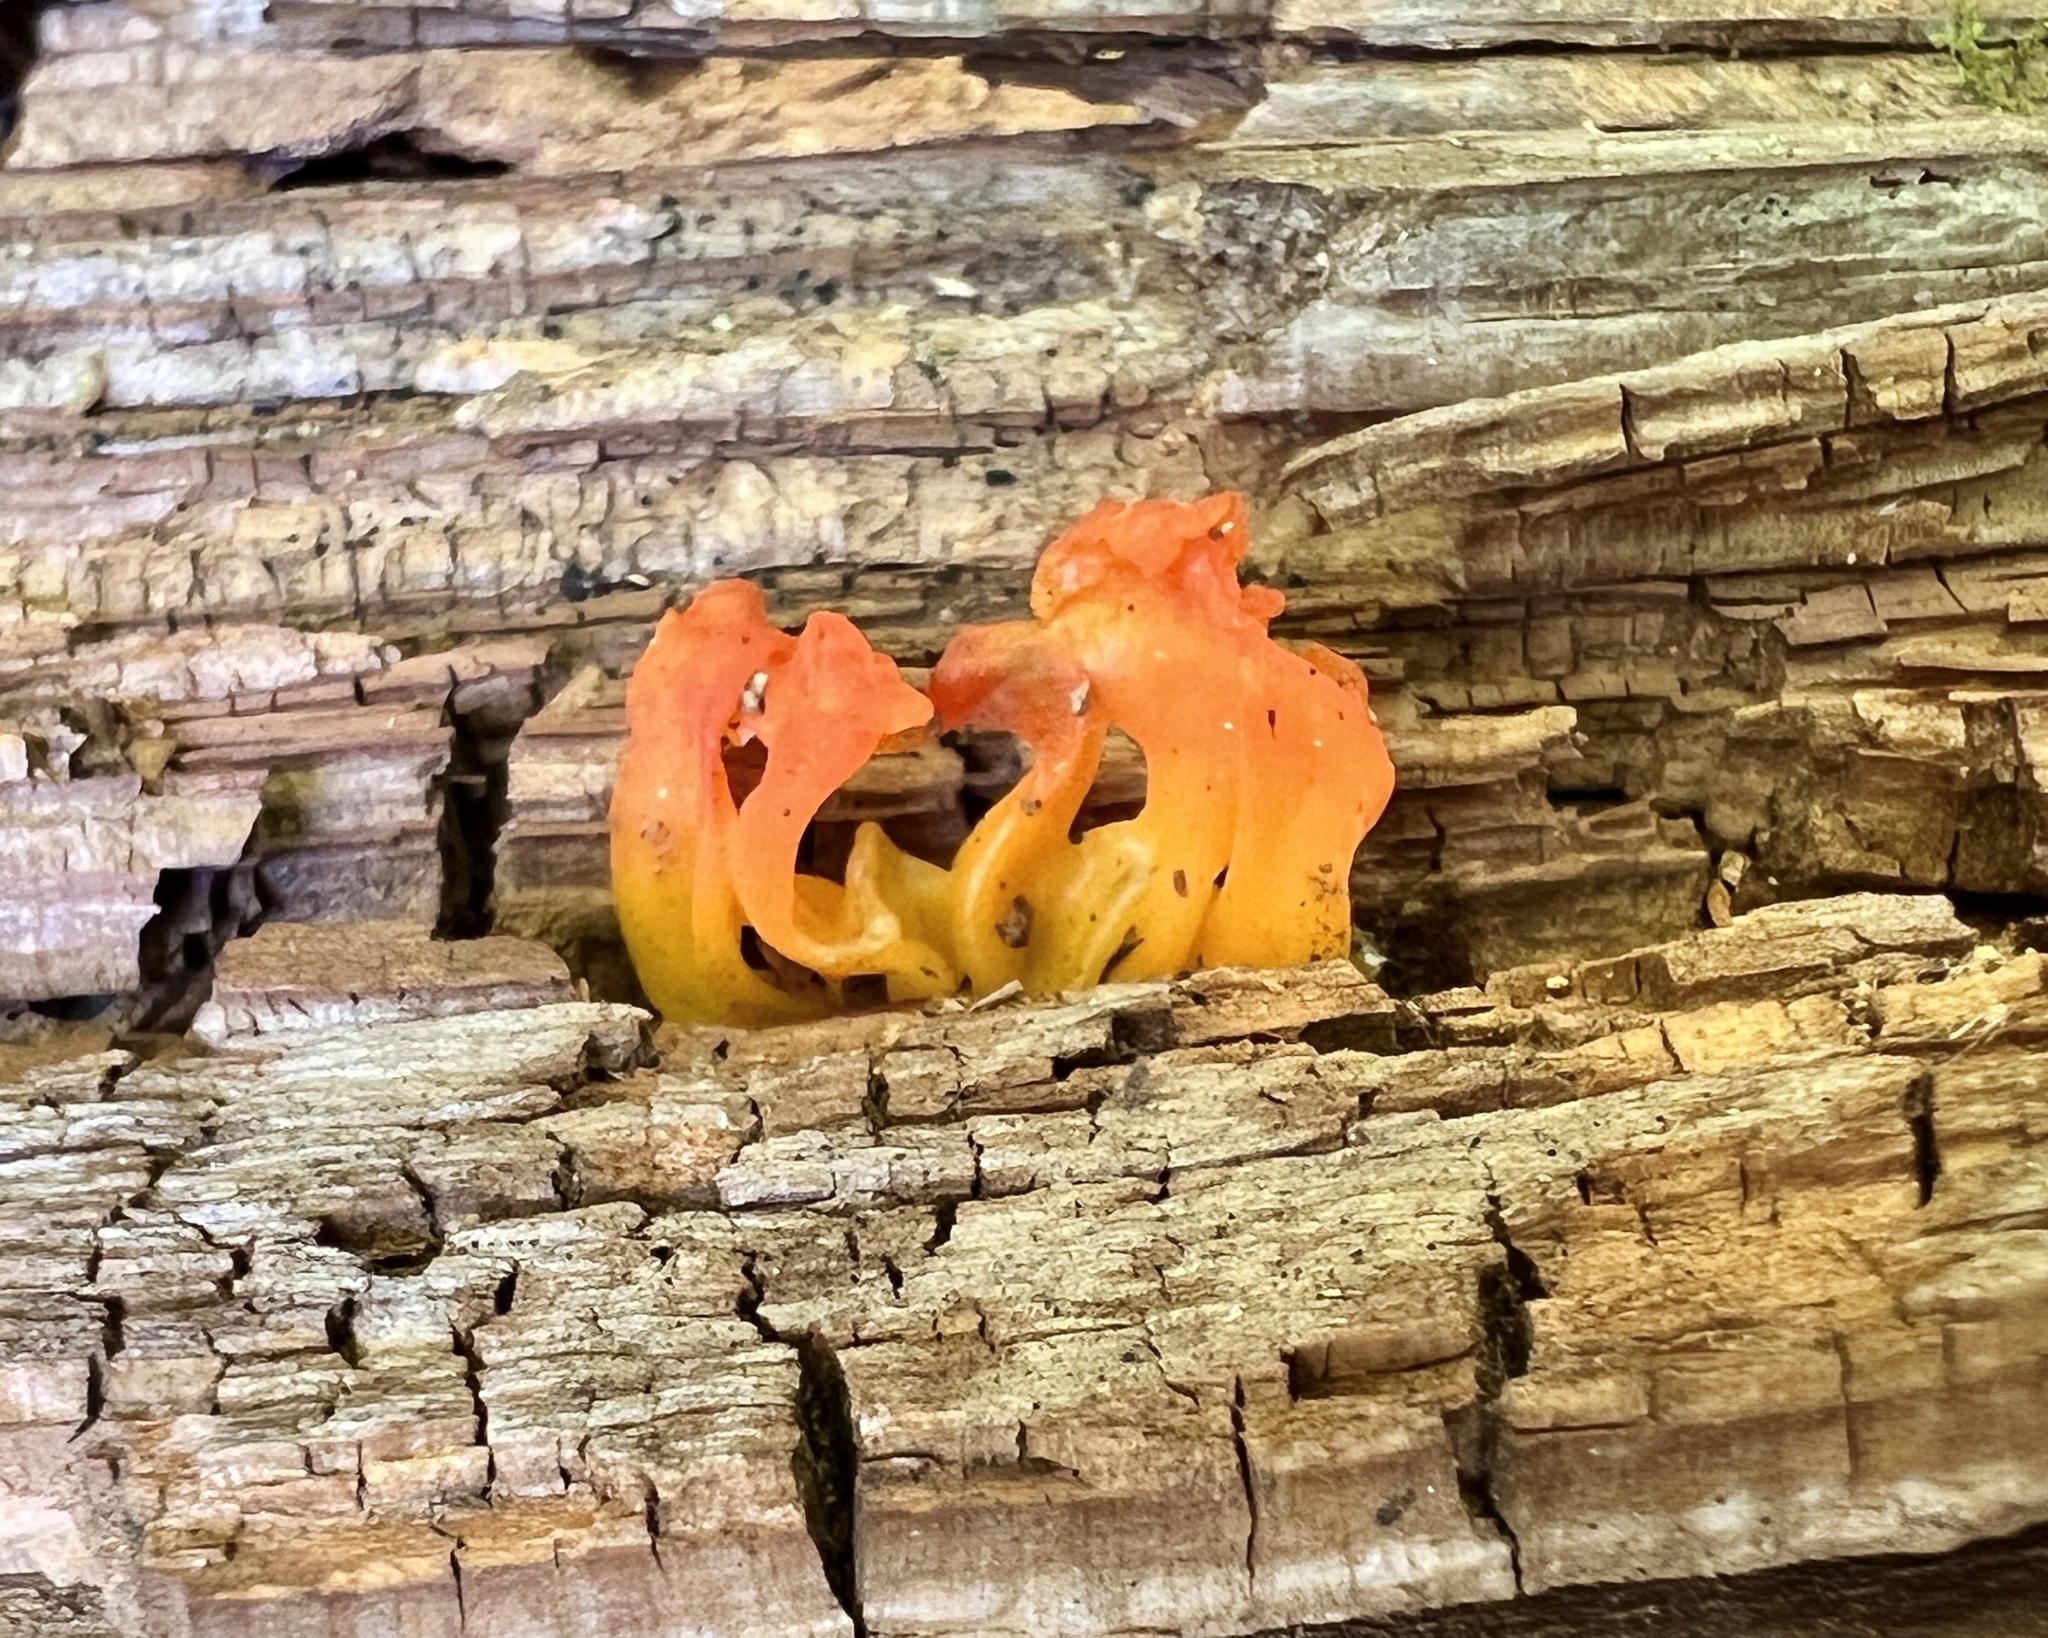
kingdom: Fungi
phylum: Basidiomycota
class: Dacrymycetes
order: Dacrymycetales
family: Dacrymycetaceae
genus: Dacrymyces
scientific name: Dacrymyces spathularius
